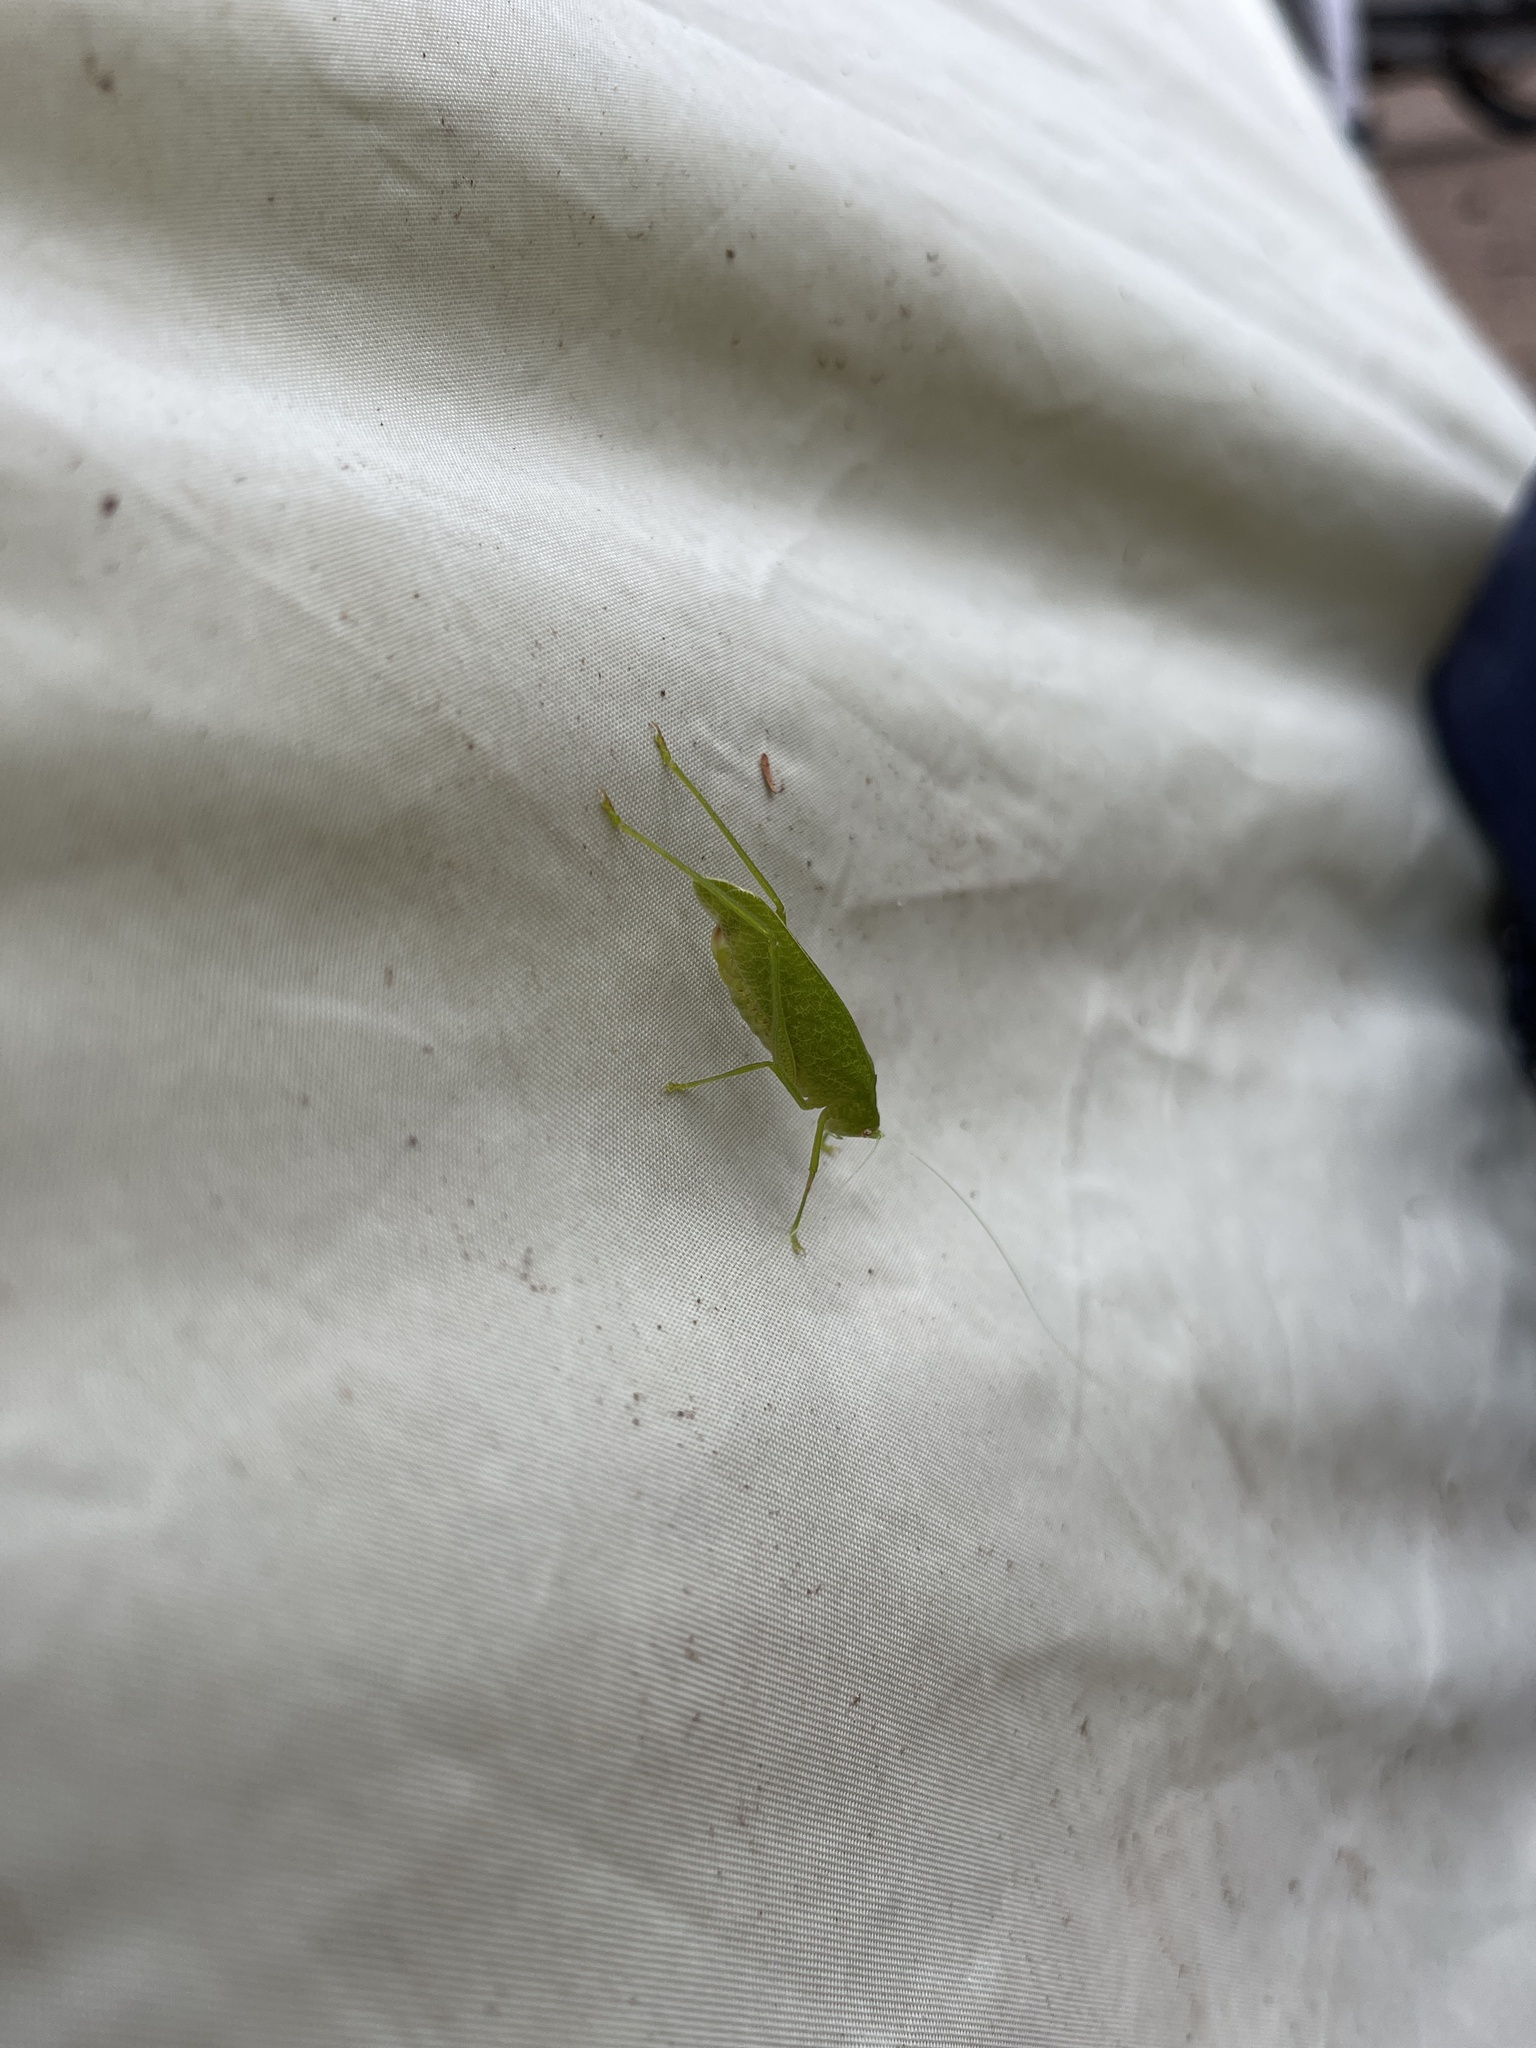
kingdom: Animalia
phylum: Arthropoda
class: Insecta
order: Orthoptera
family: Tettigoniidae
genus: Melidia
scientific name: Melidia laminata
